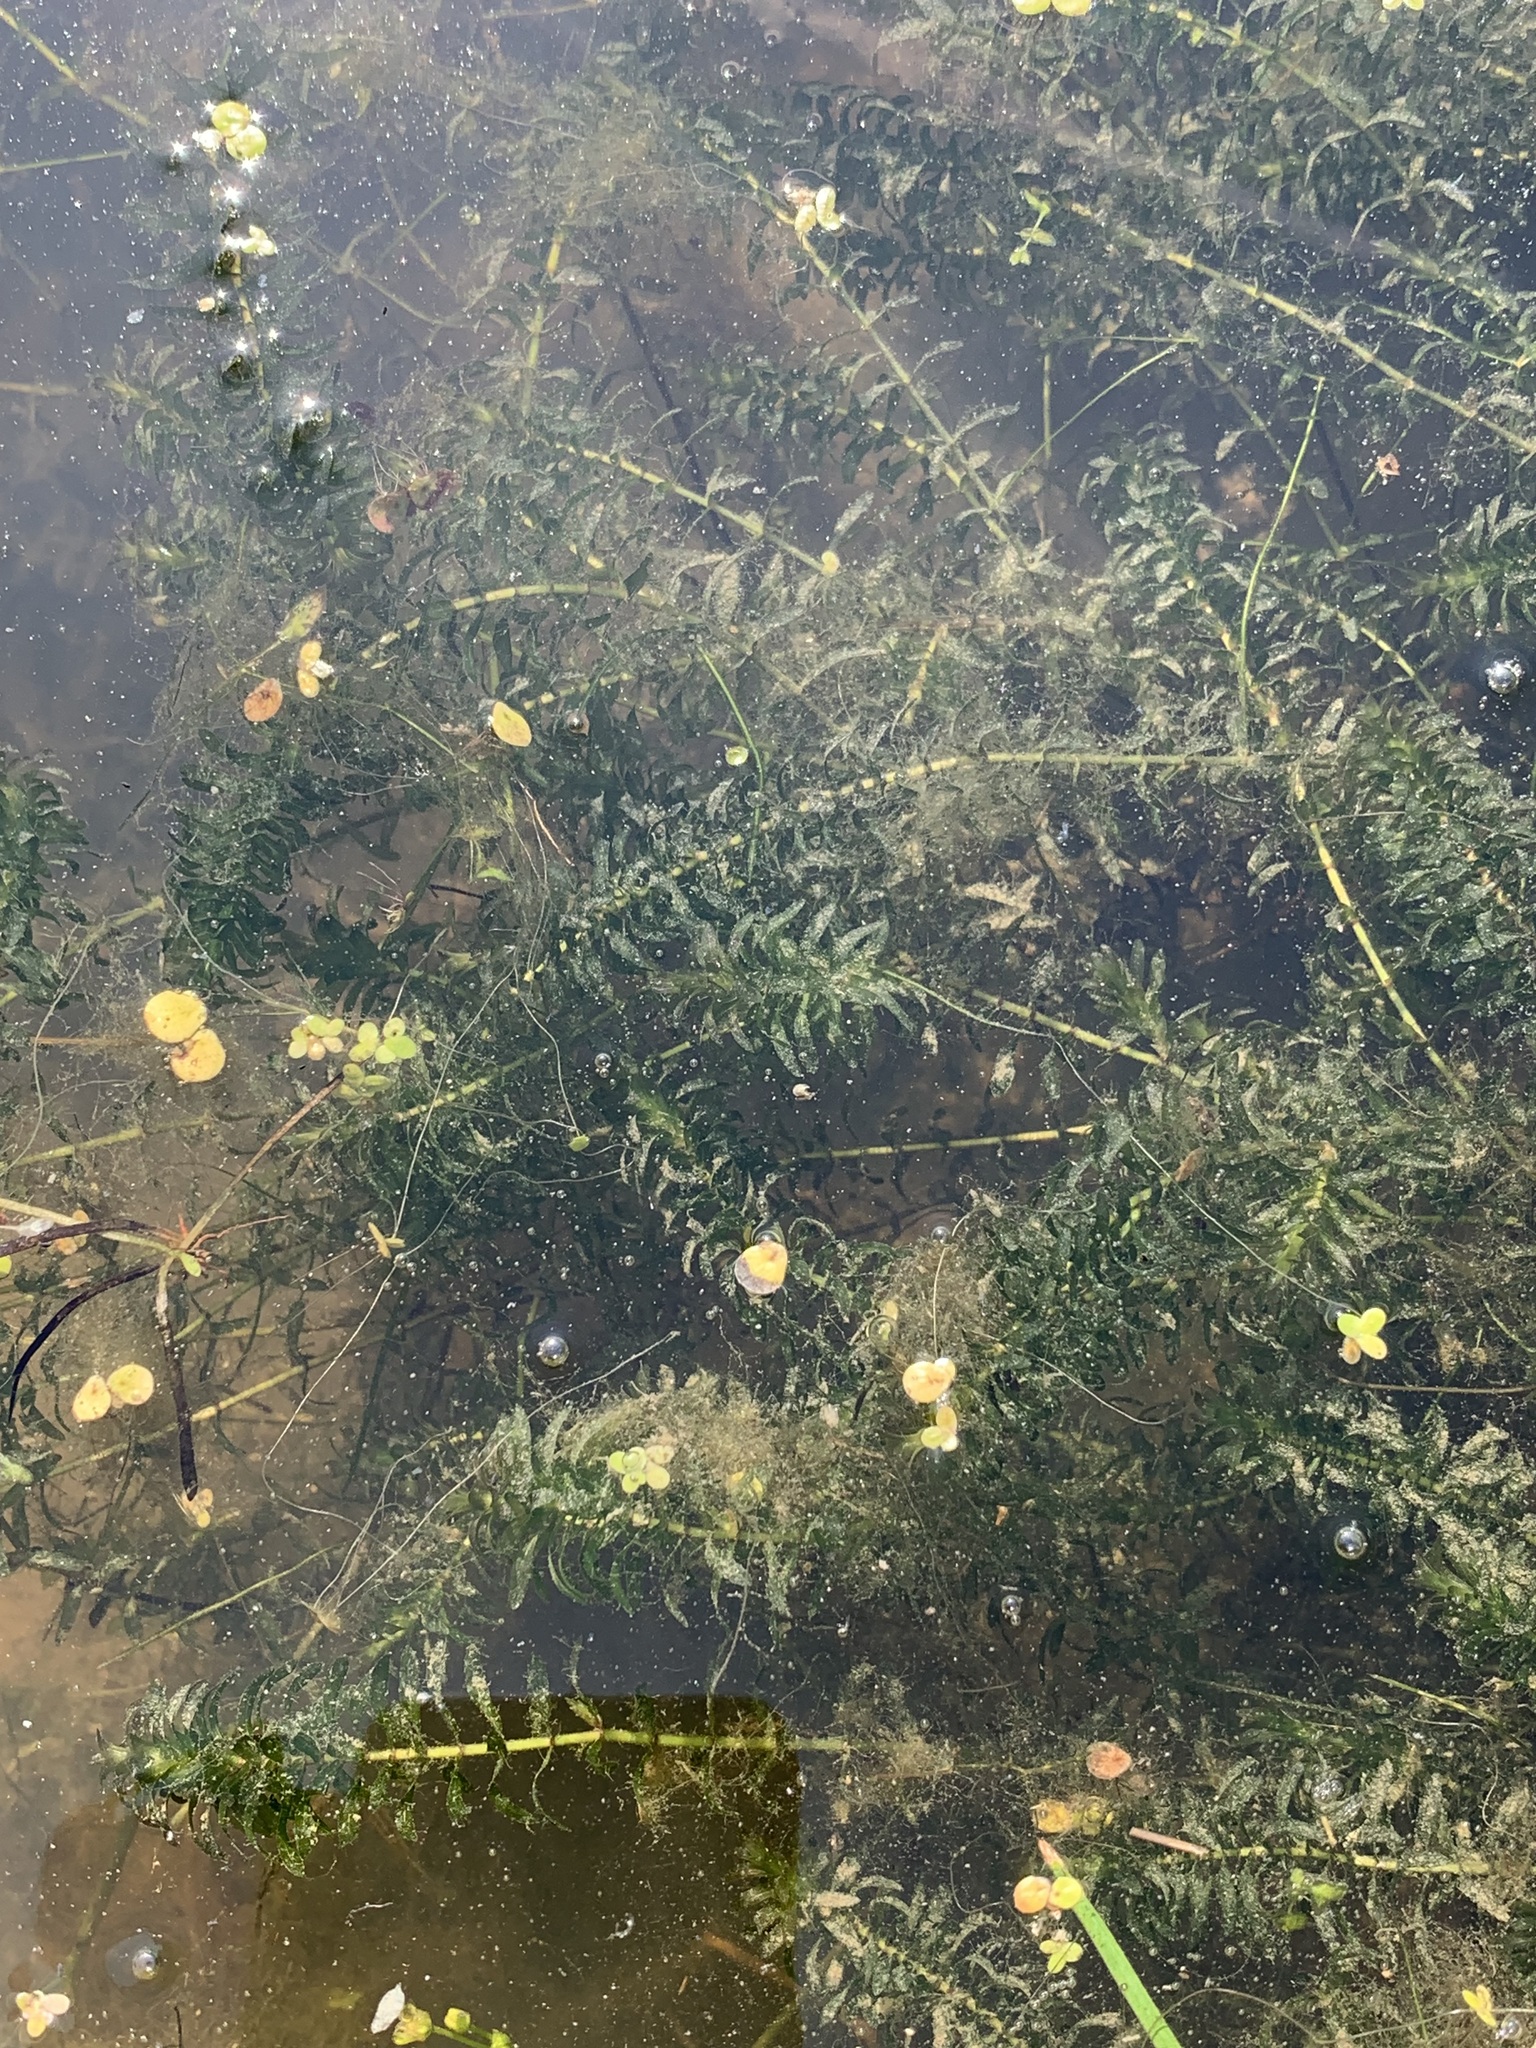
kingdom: Plantae
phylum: Tracheophyta
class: Liliopsida
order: Alismatales
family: Hydrocharitaceae
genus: Elodea
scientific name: Elodea canadensis
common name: Canadian waterweed
